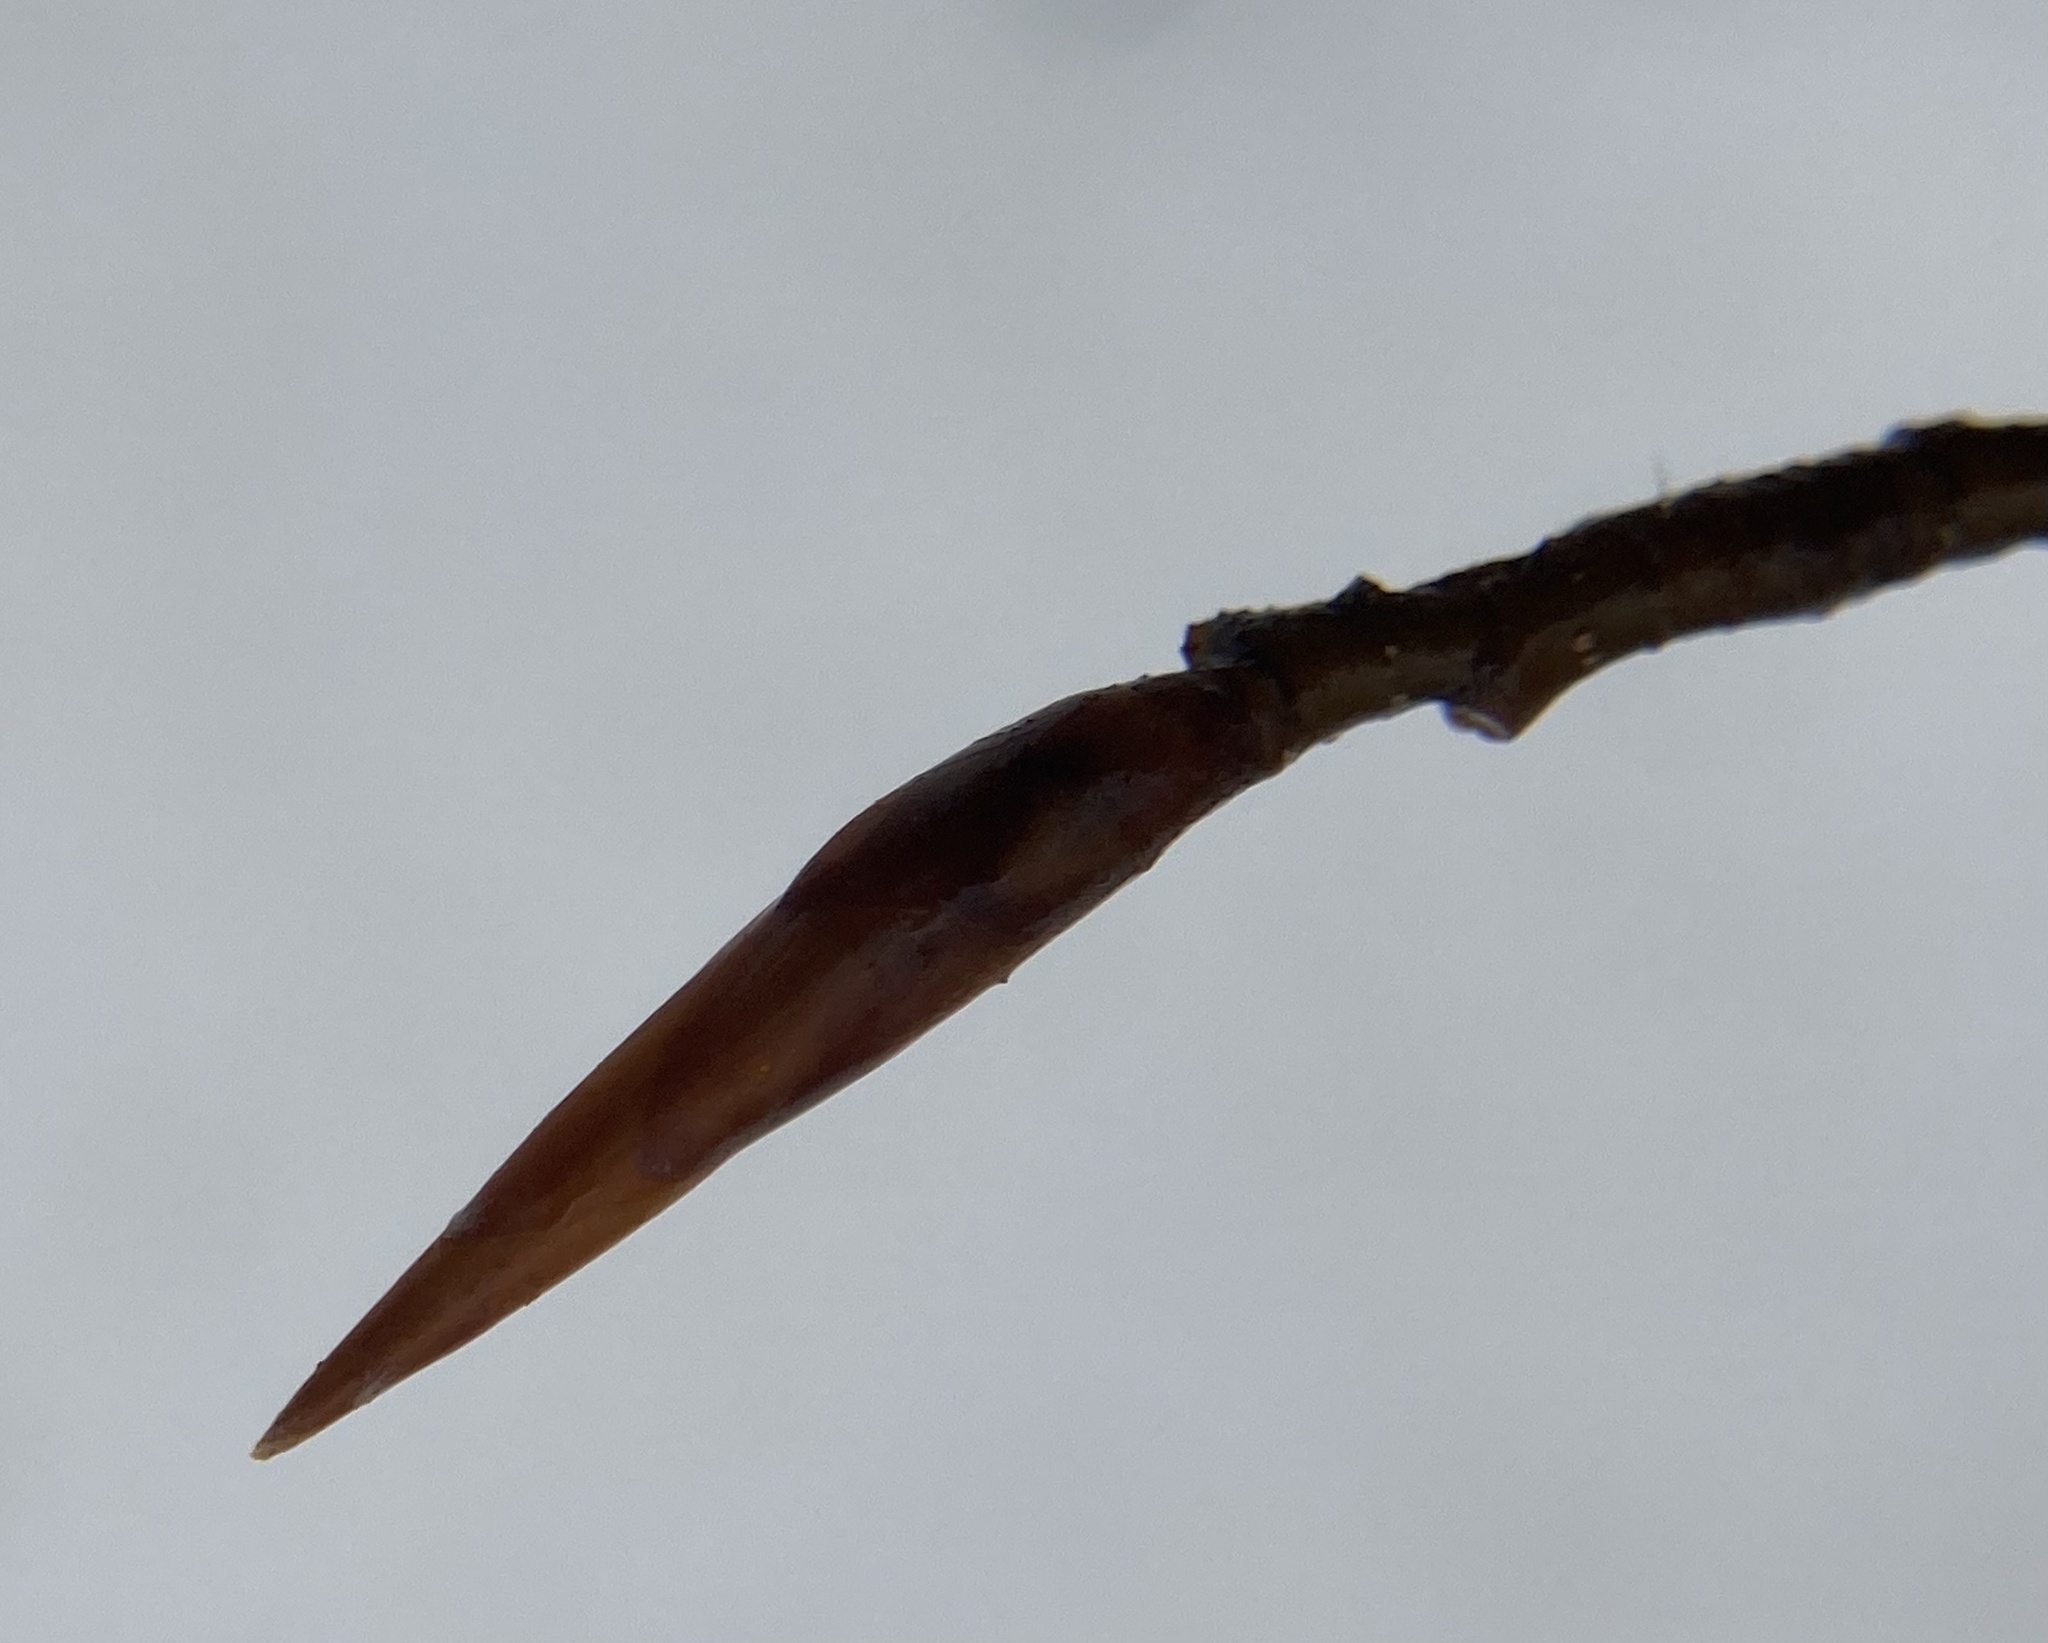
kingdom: Plantae
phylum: Tracheophyta
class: Magnoliopsida
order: Fagales
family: Fagaceae
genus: Fagus
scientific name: Fagus grandifolia
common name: American beech
